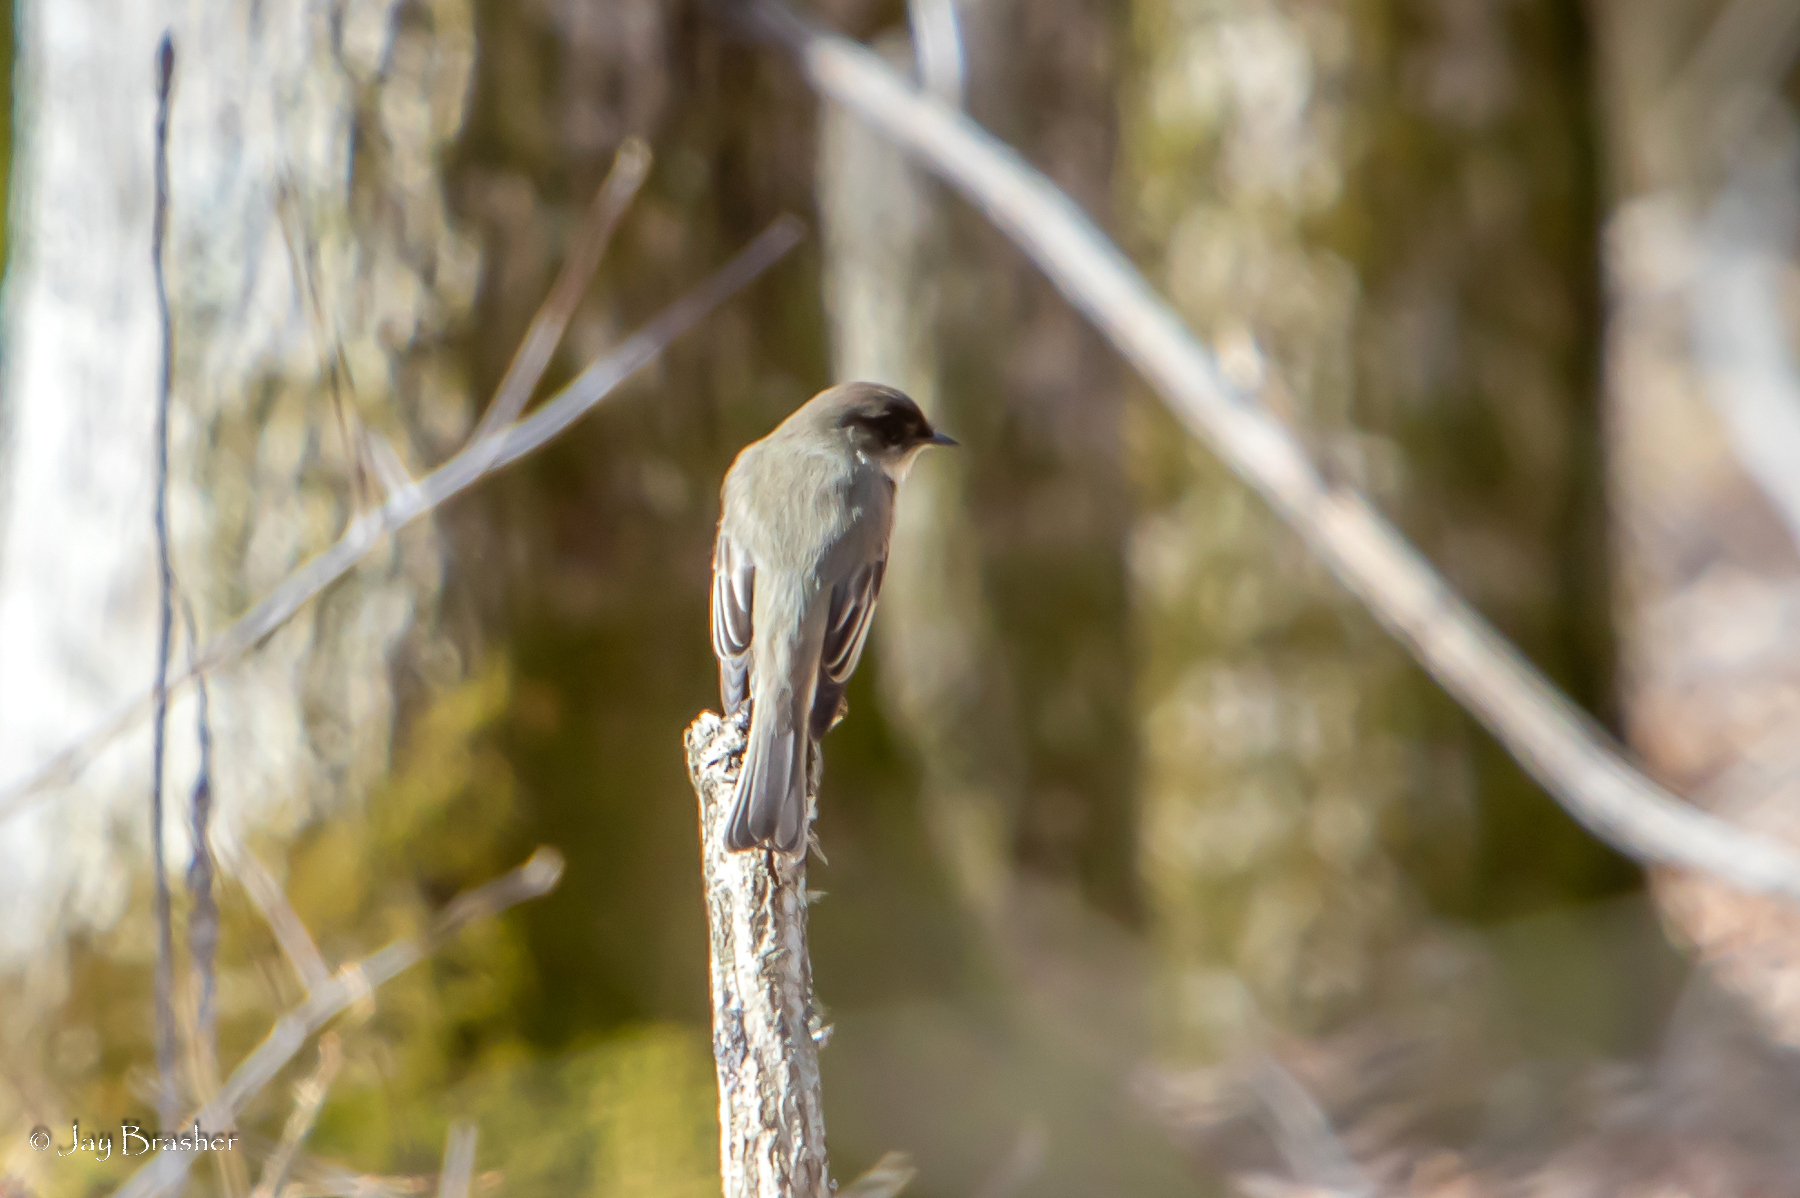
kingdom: Animalia
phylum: Chordata
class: Aves
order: Passeriformes
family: Tyrannidae
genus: Sayornis
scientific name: Sayornis phoebe
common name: Eastern phoebe
